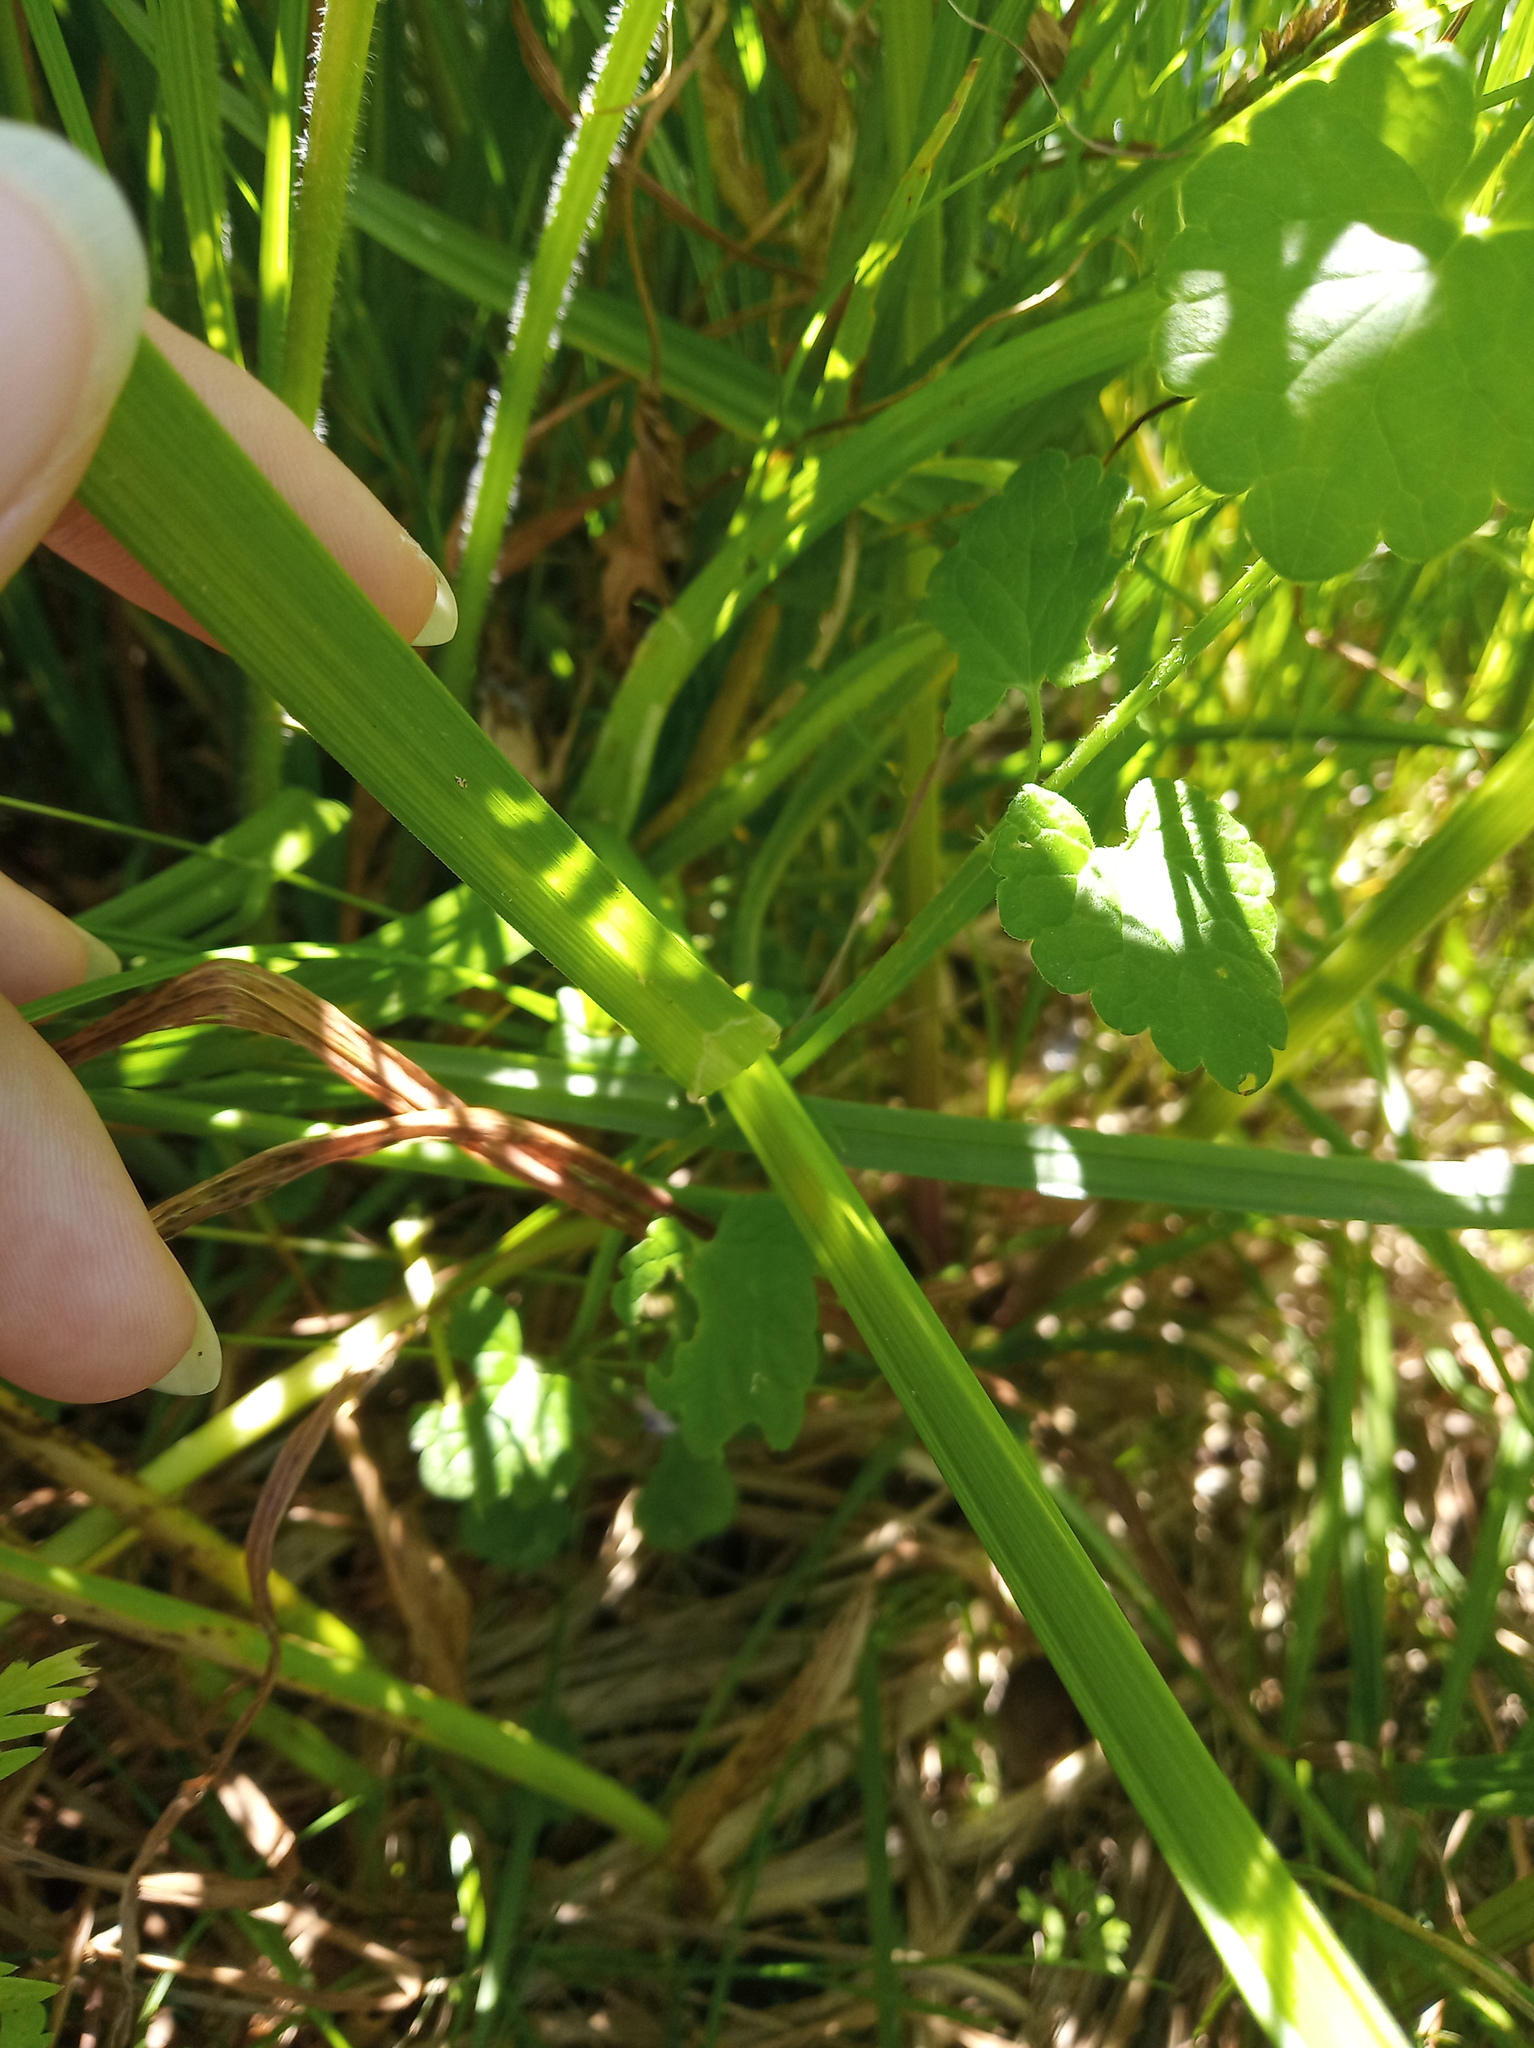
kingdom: Plantae
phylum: Tracheophyta
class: Liliopsida
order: Poales
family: Cyperaceae
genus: Carex
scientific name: Carex vulpina
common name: True fox-sedge
